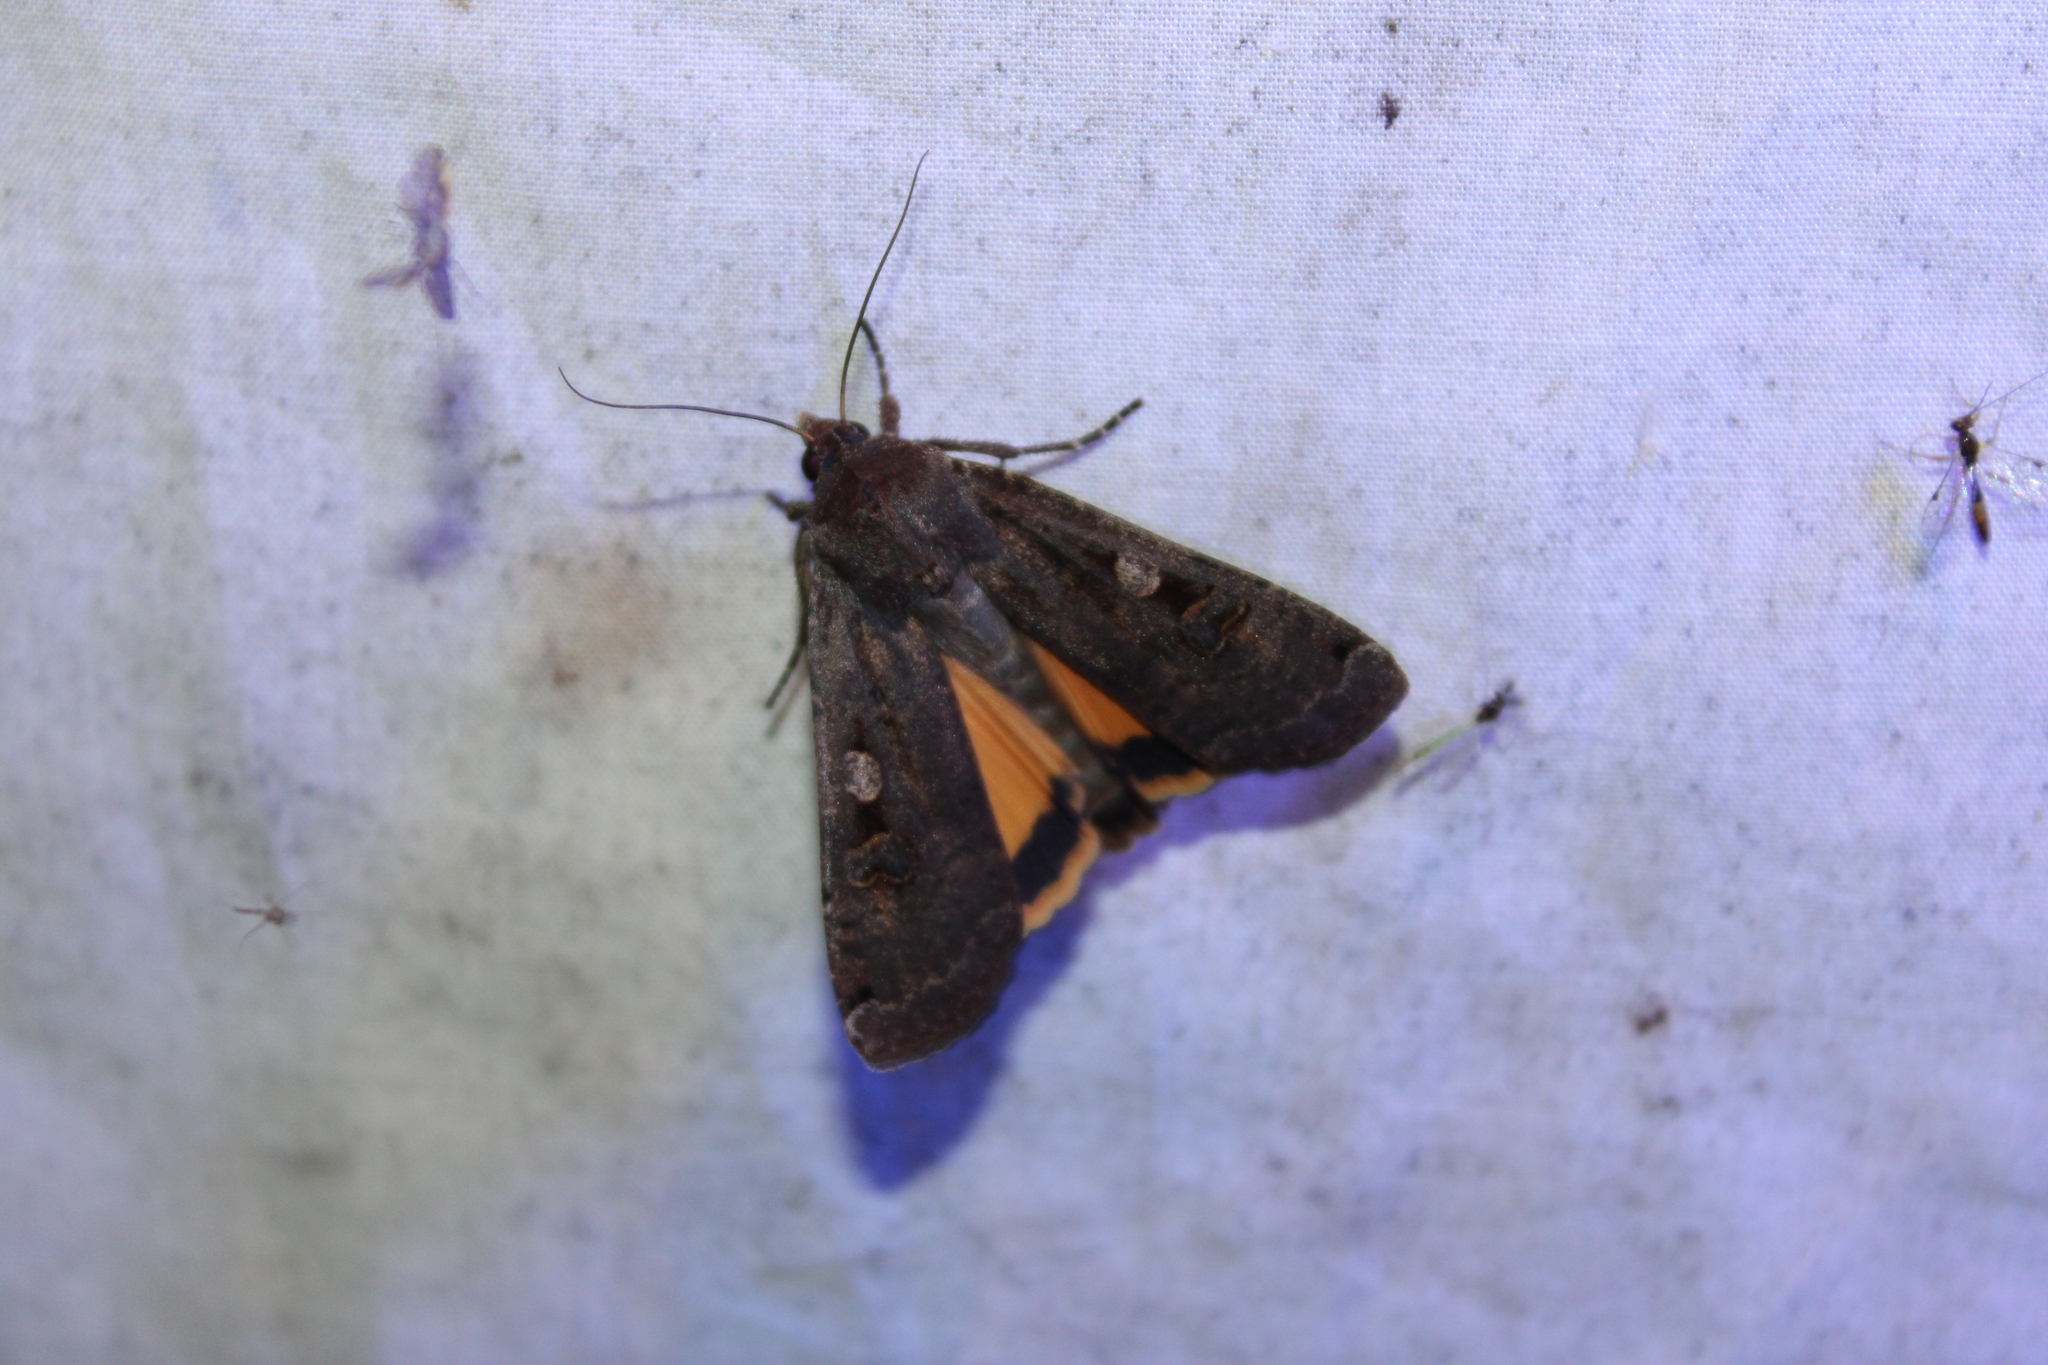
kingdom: Animalia
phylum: Arthropoda
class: Insecta
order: Lepidoptera
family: Noctuidae
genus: Noctua
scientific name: Noctua pronuba
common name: Large yellow underwing
